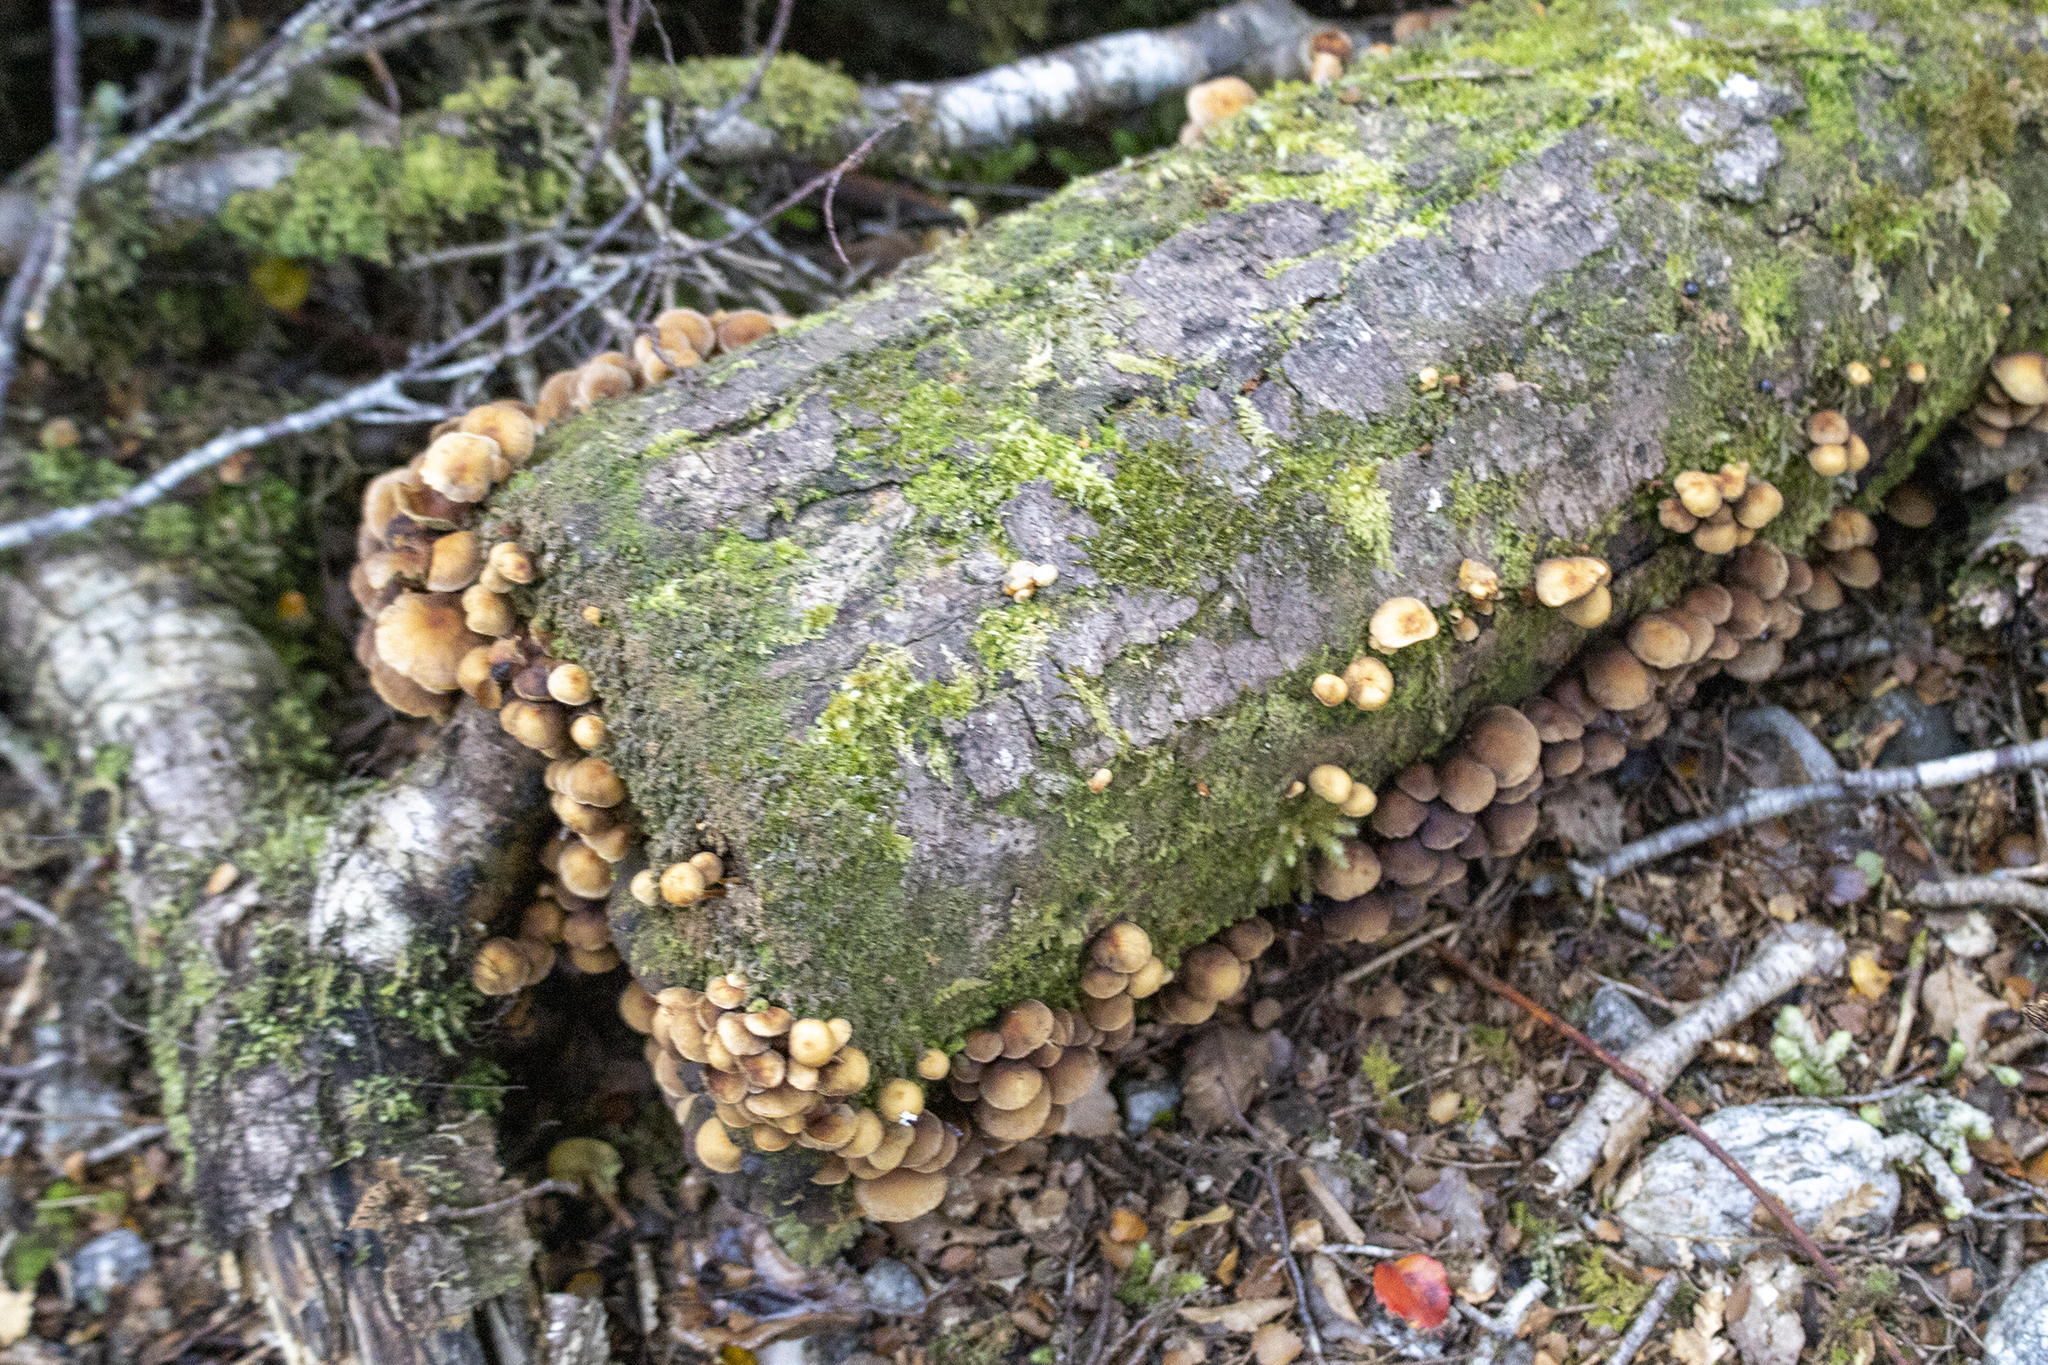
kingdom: Fungi
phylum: Basidiomycota
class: Agaricomycetes
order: Agaricales
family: Strophariaceae
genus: Hypholoma
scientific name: Hypholoma acutum
